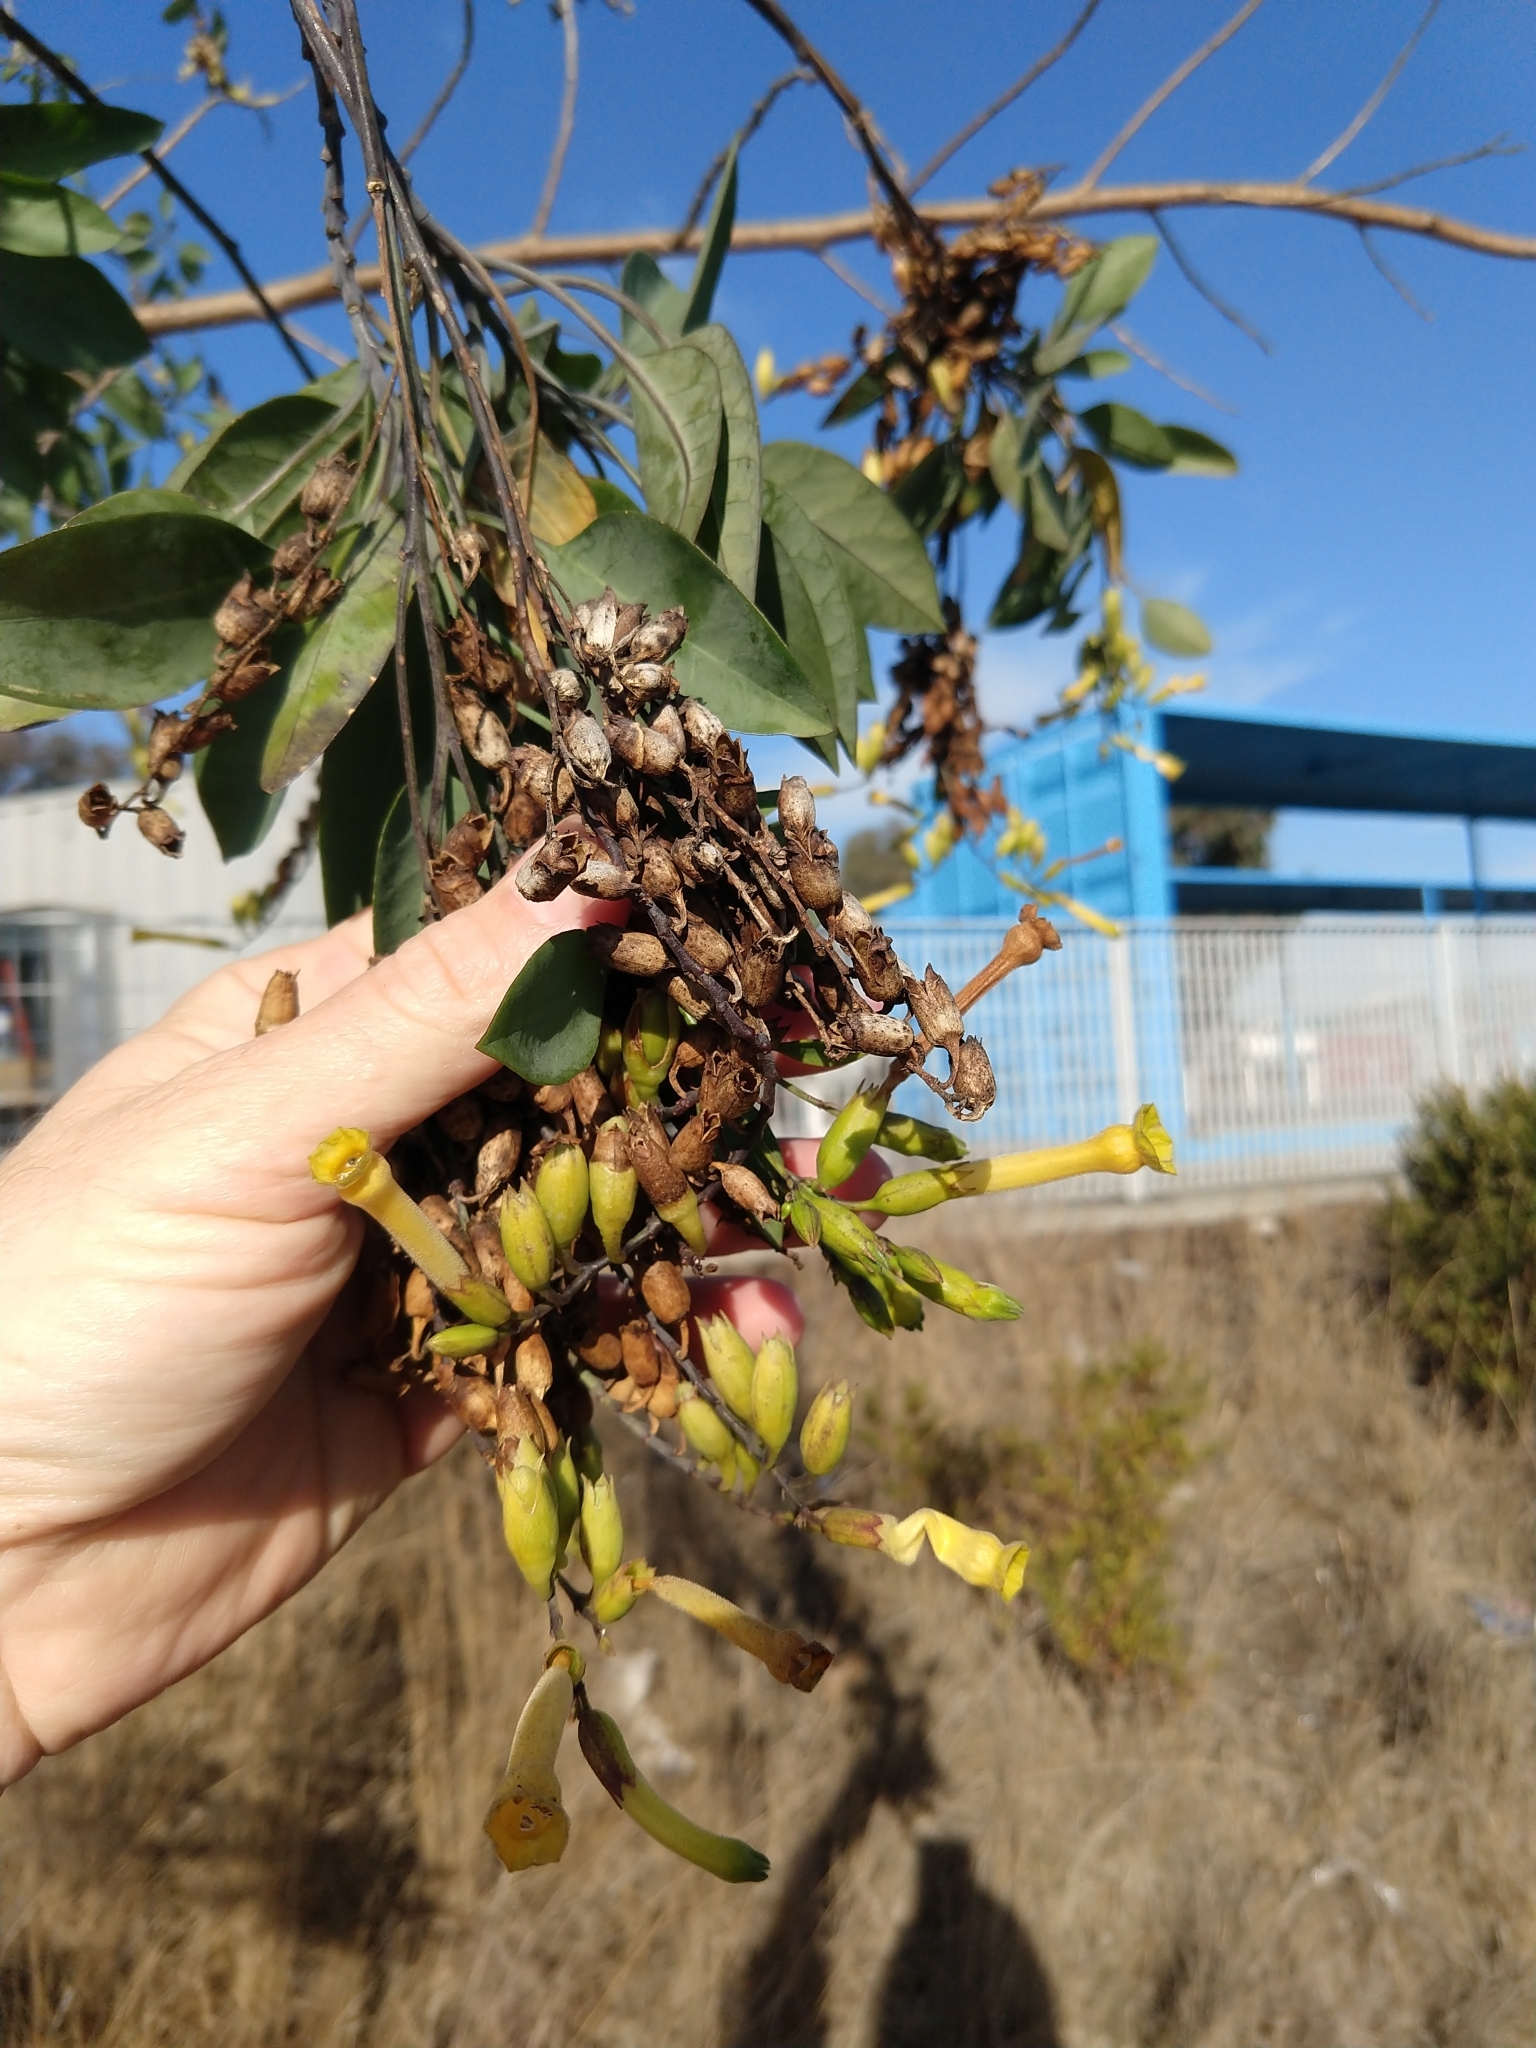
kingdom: Plantae
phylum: Tracheophyta
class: Magnoliopsida
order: Solanales
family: Solanaceae
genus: Nicotiana
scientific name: Nicotiana glauca
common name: Tree tobacco
